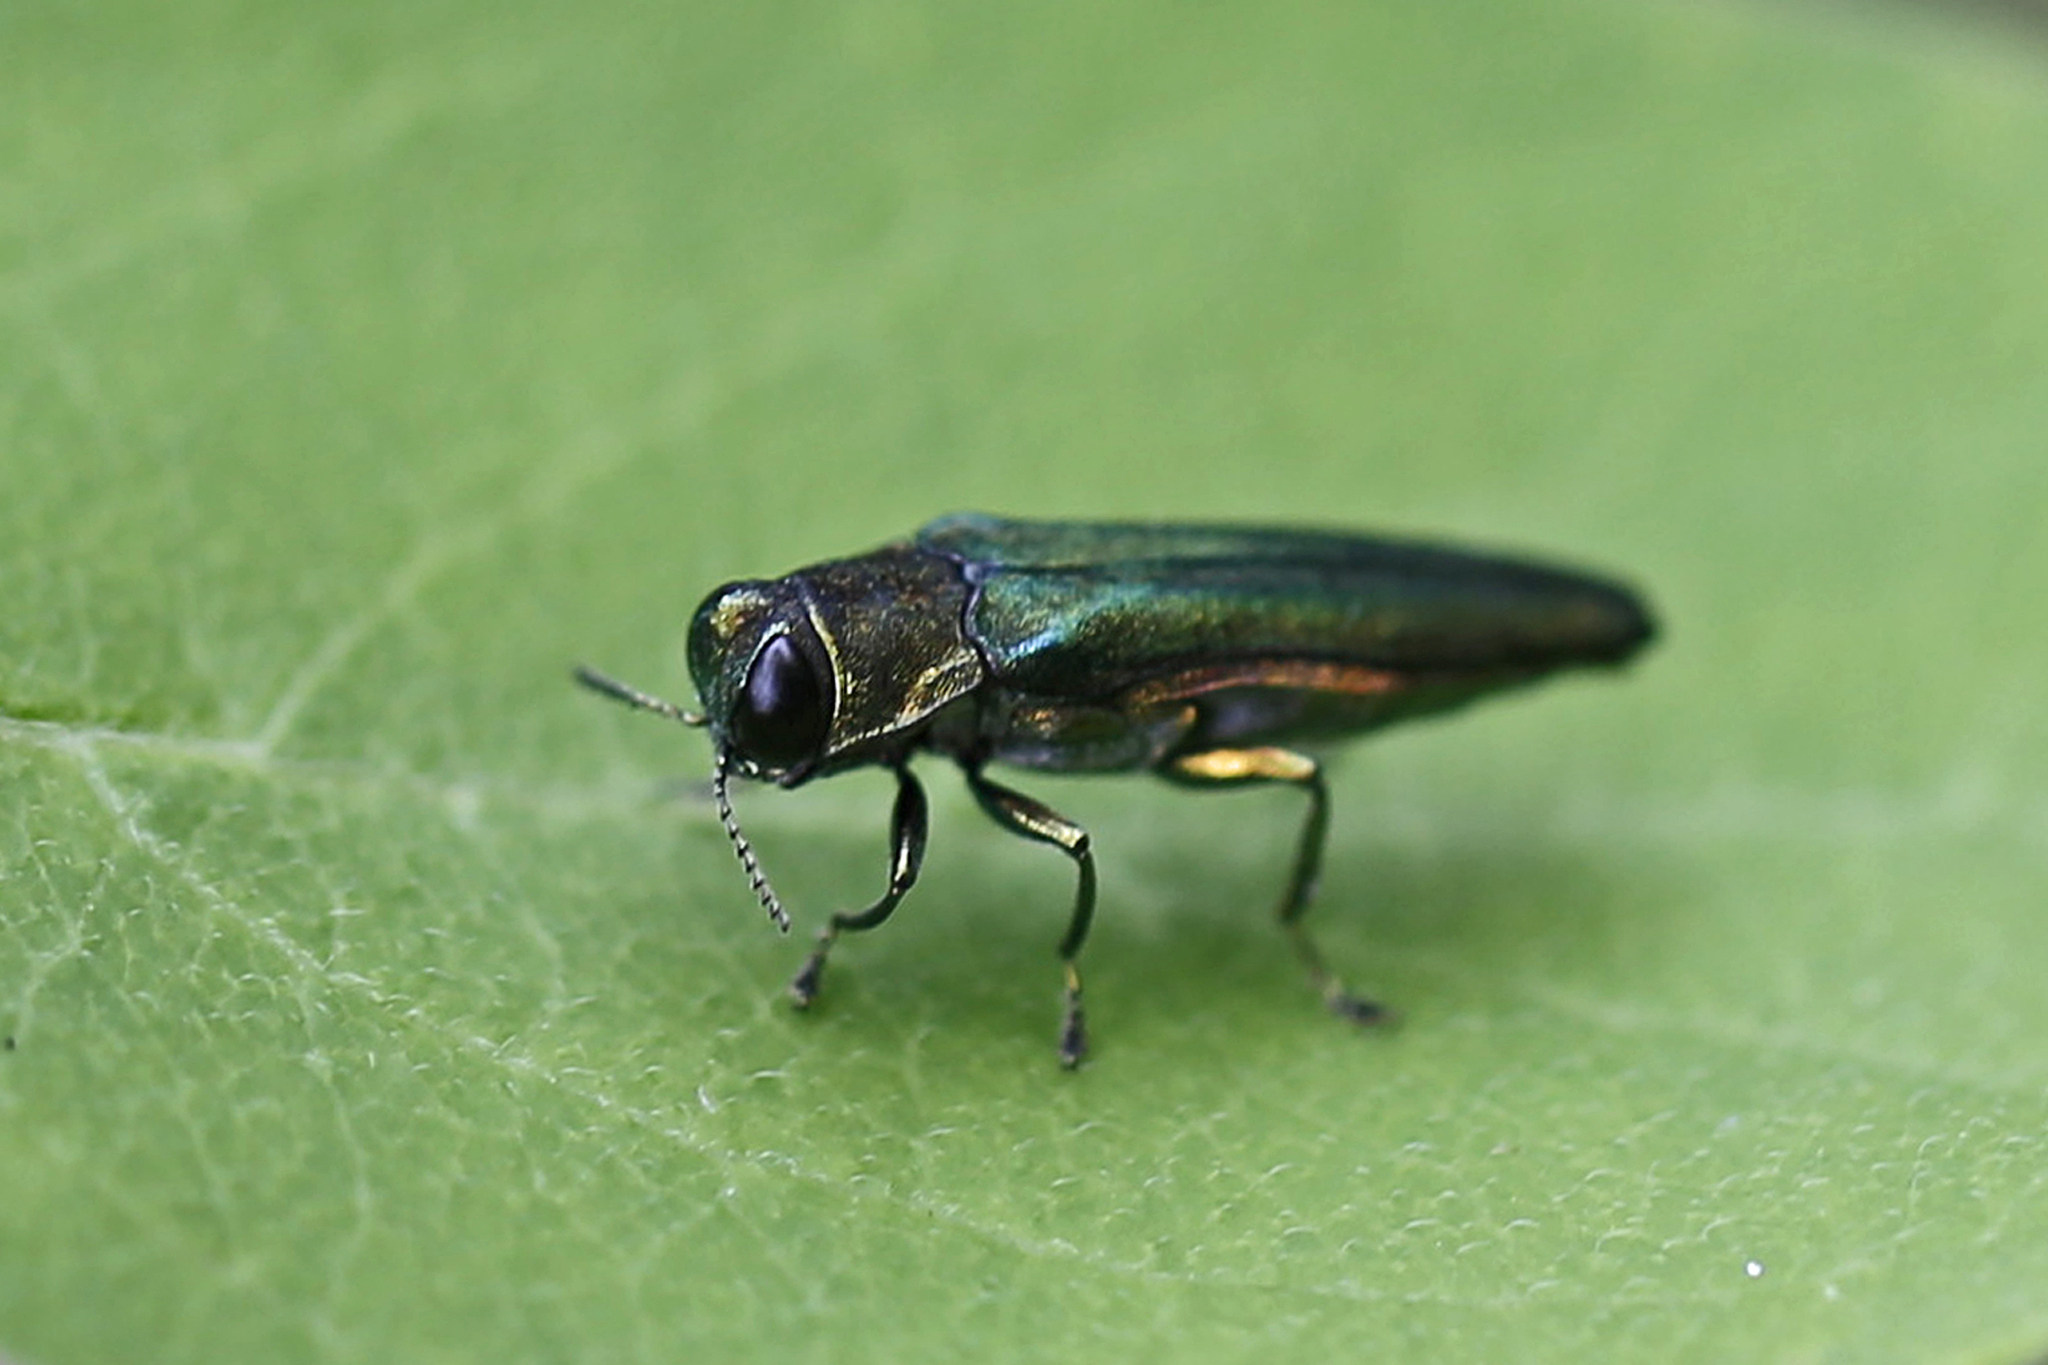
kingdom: Animalia
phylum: Arthropoda
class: Insecta
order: Coleoptera
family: Buprestidae
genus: Agrilus
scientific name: Agrilus planipennis
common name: Emerald ash borer
